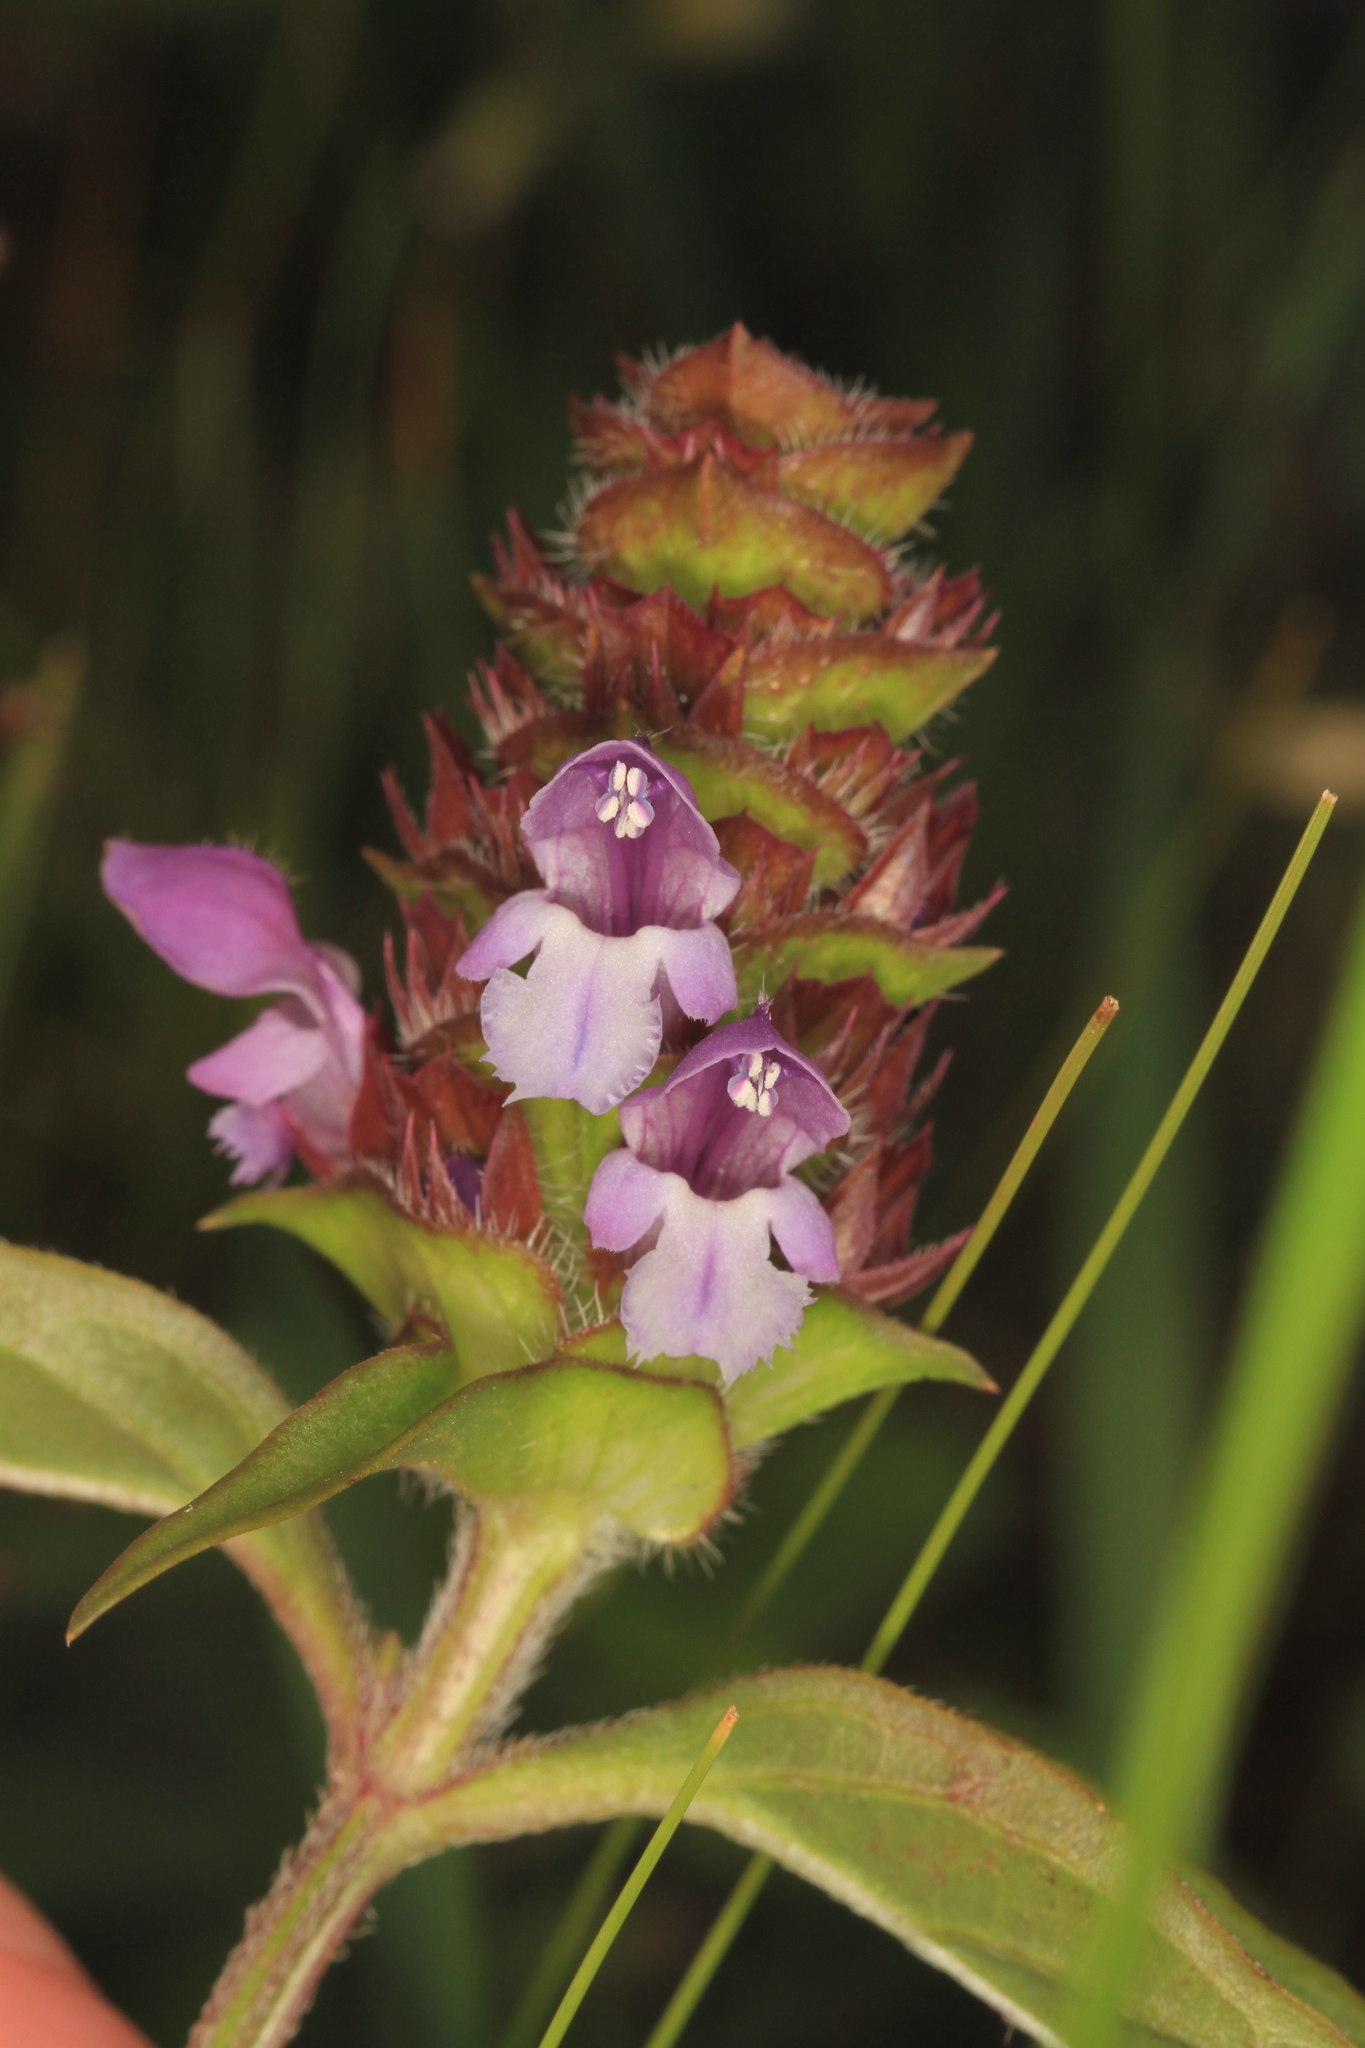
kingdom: Plantae
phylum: Tracheophyta
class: Magnoliopsida
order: Lamiales
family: Lamiaceae
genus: Prunella
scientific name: Prunella vulgaris
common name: Heal-all
